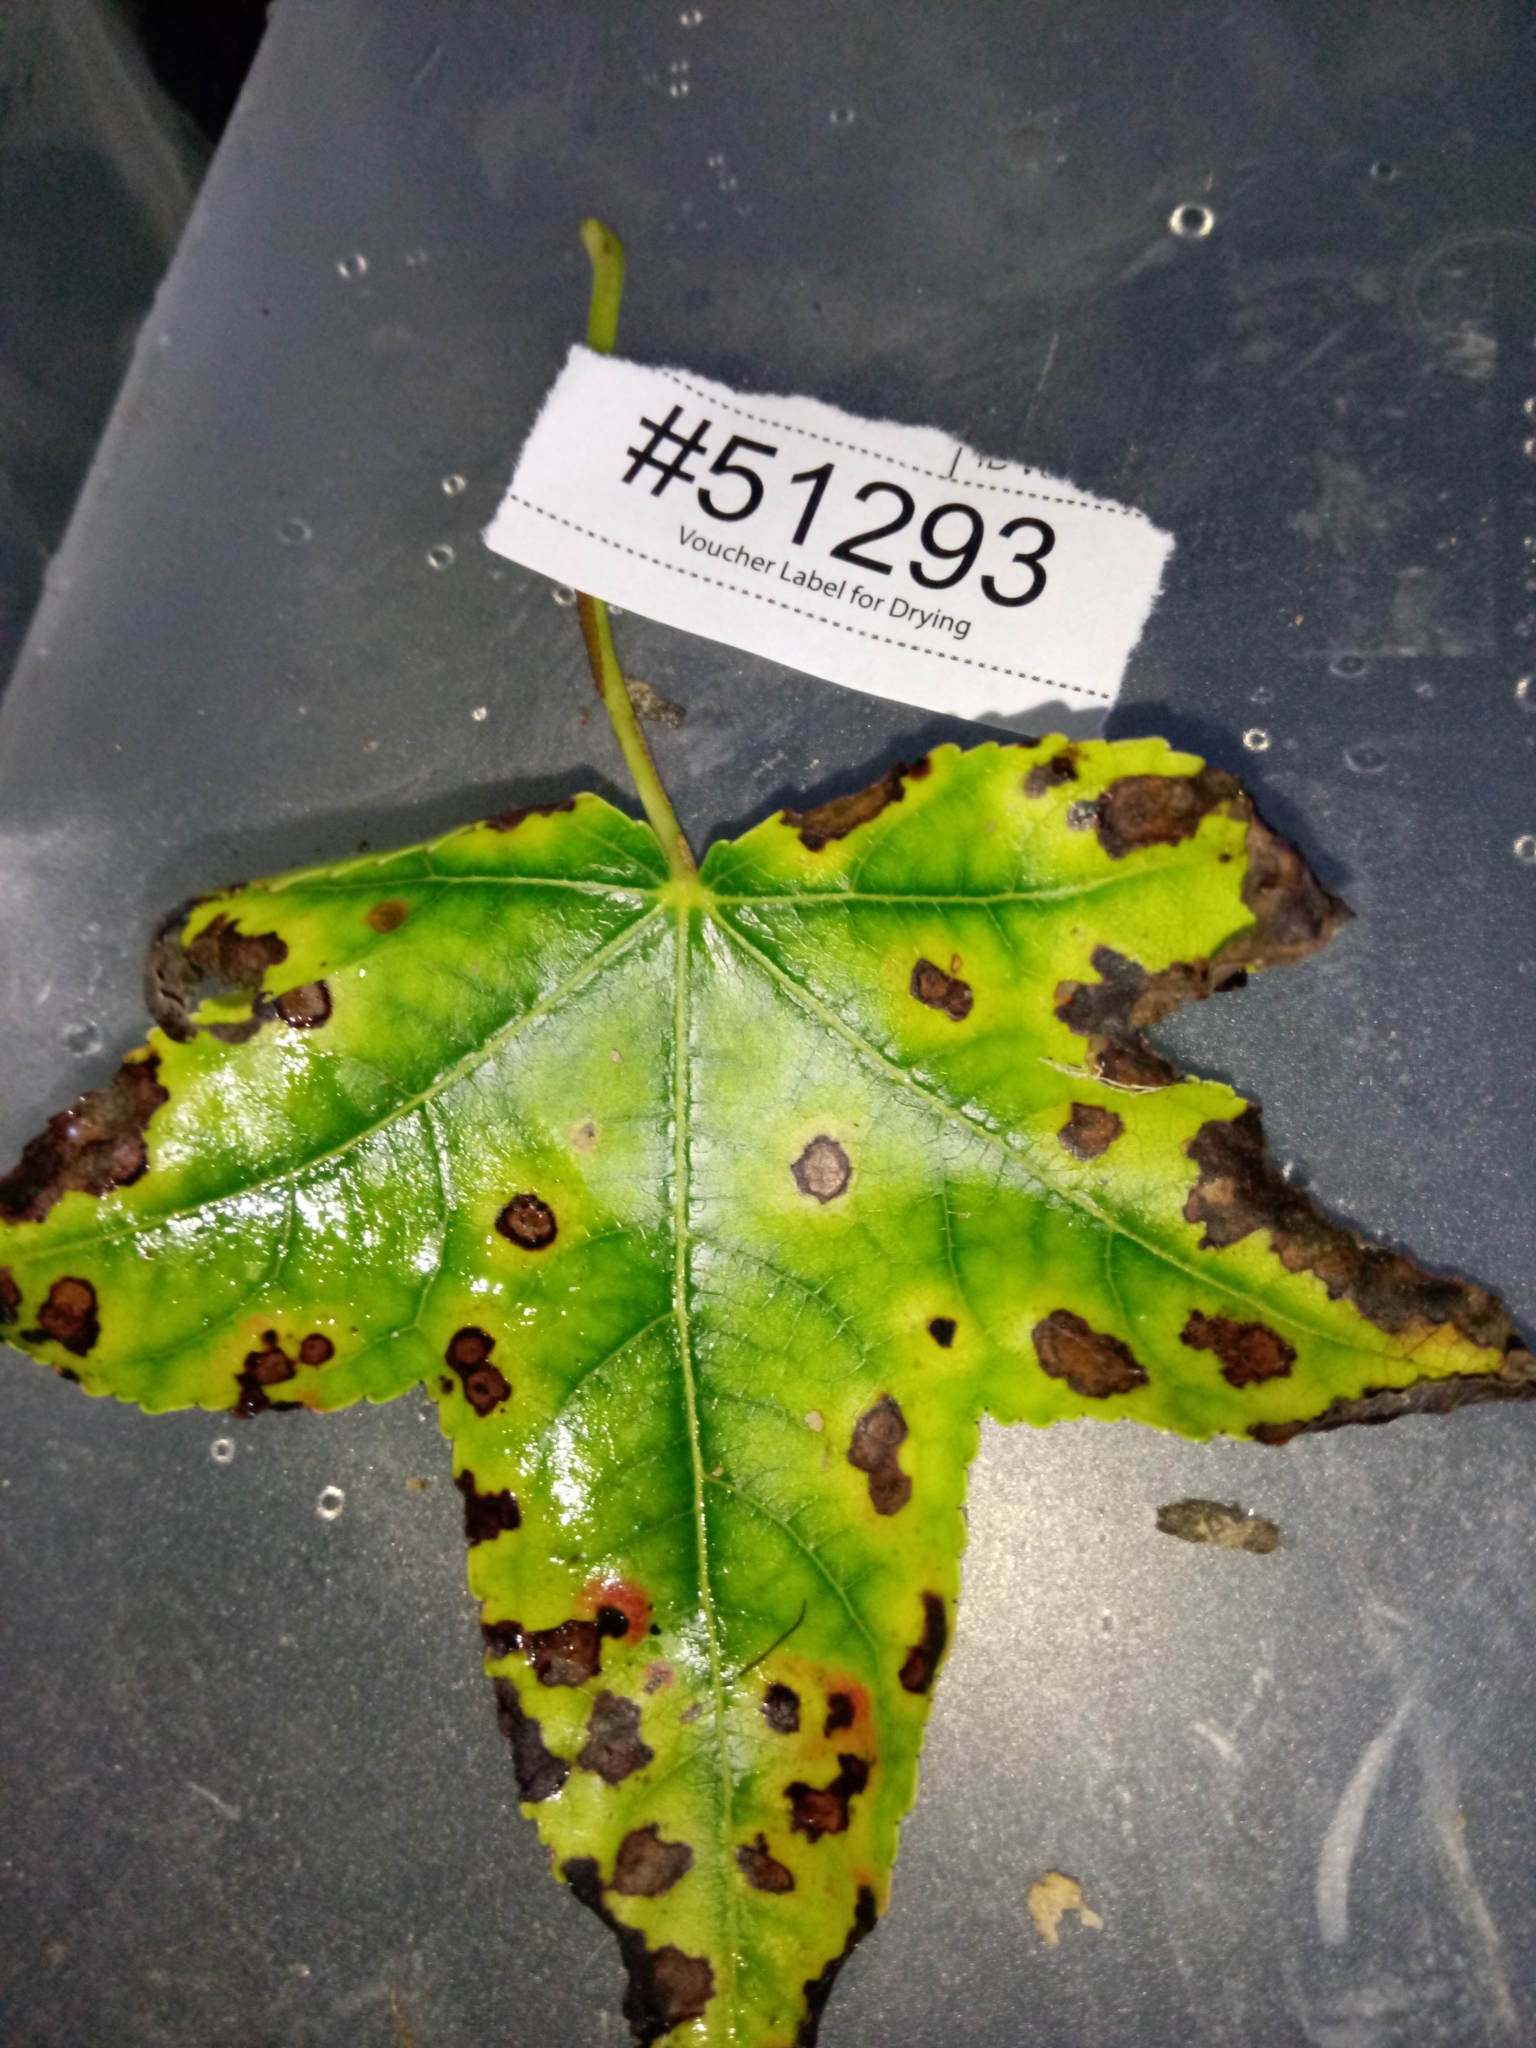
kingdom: Fungi
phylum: Ascomycota
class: Dothideomycetes
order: Mycosphaerellales
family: Mycosphaerellaceae
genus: Pseudocercospora
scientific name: Pseudocercospora neoliquidambaris
